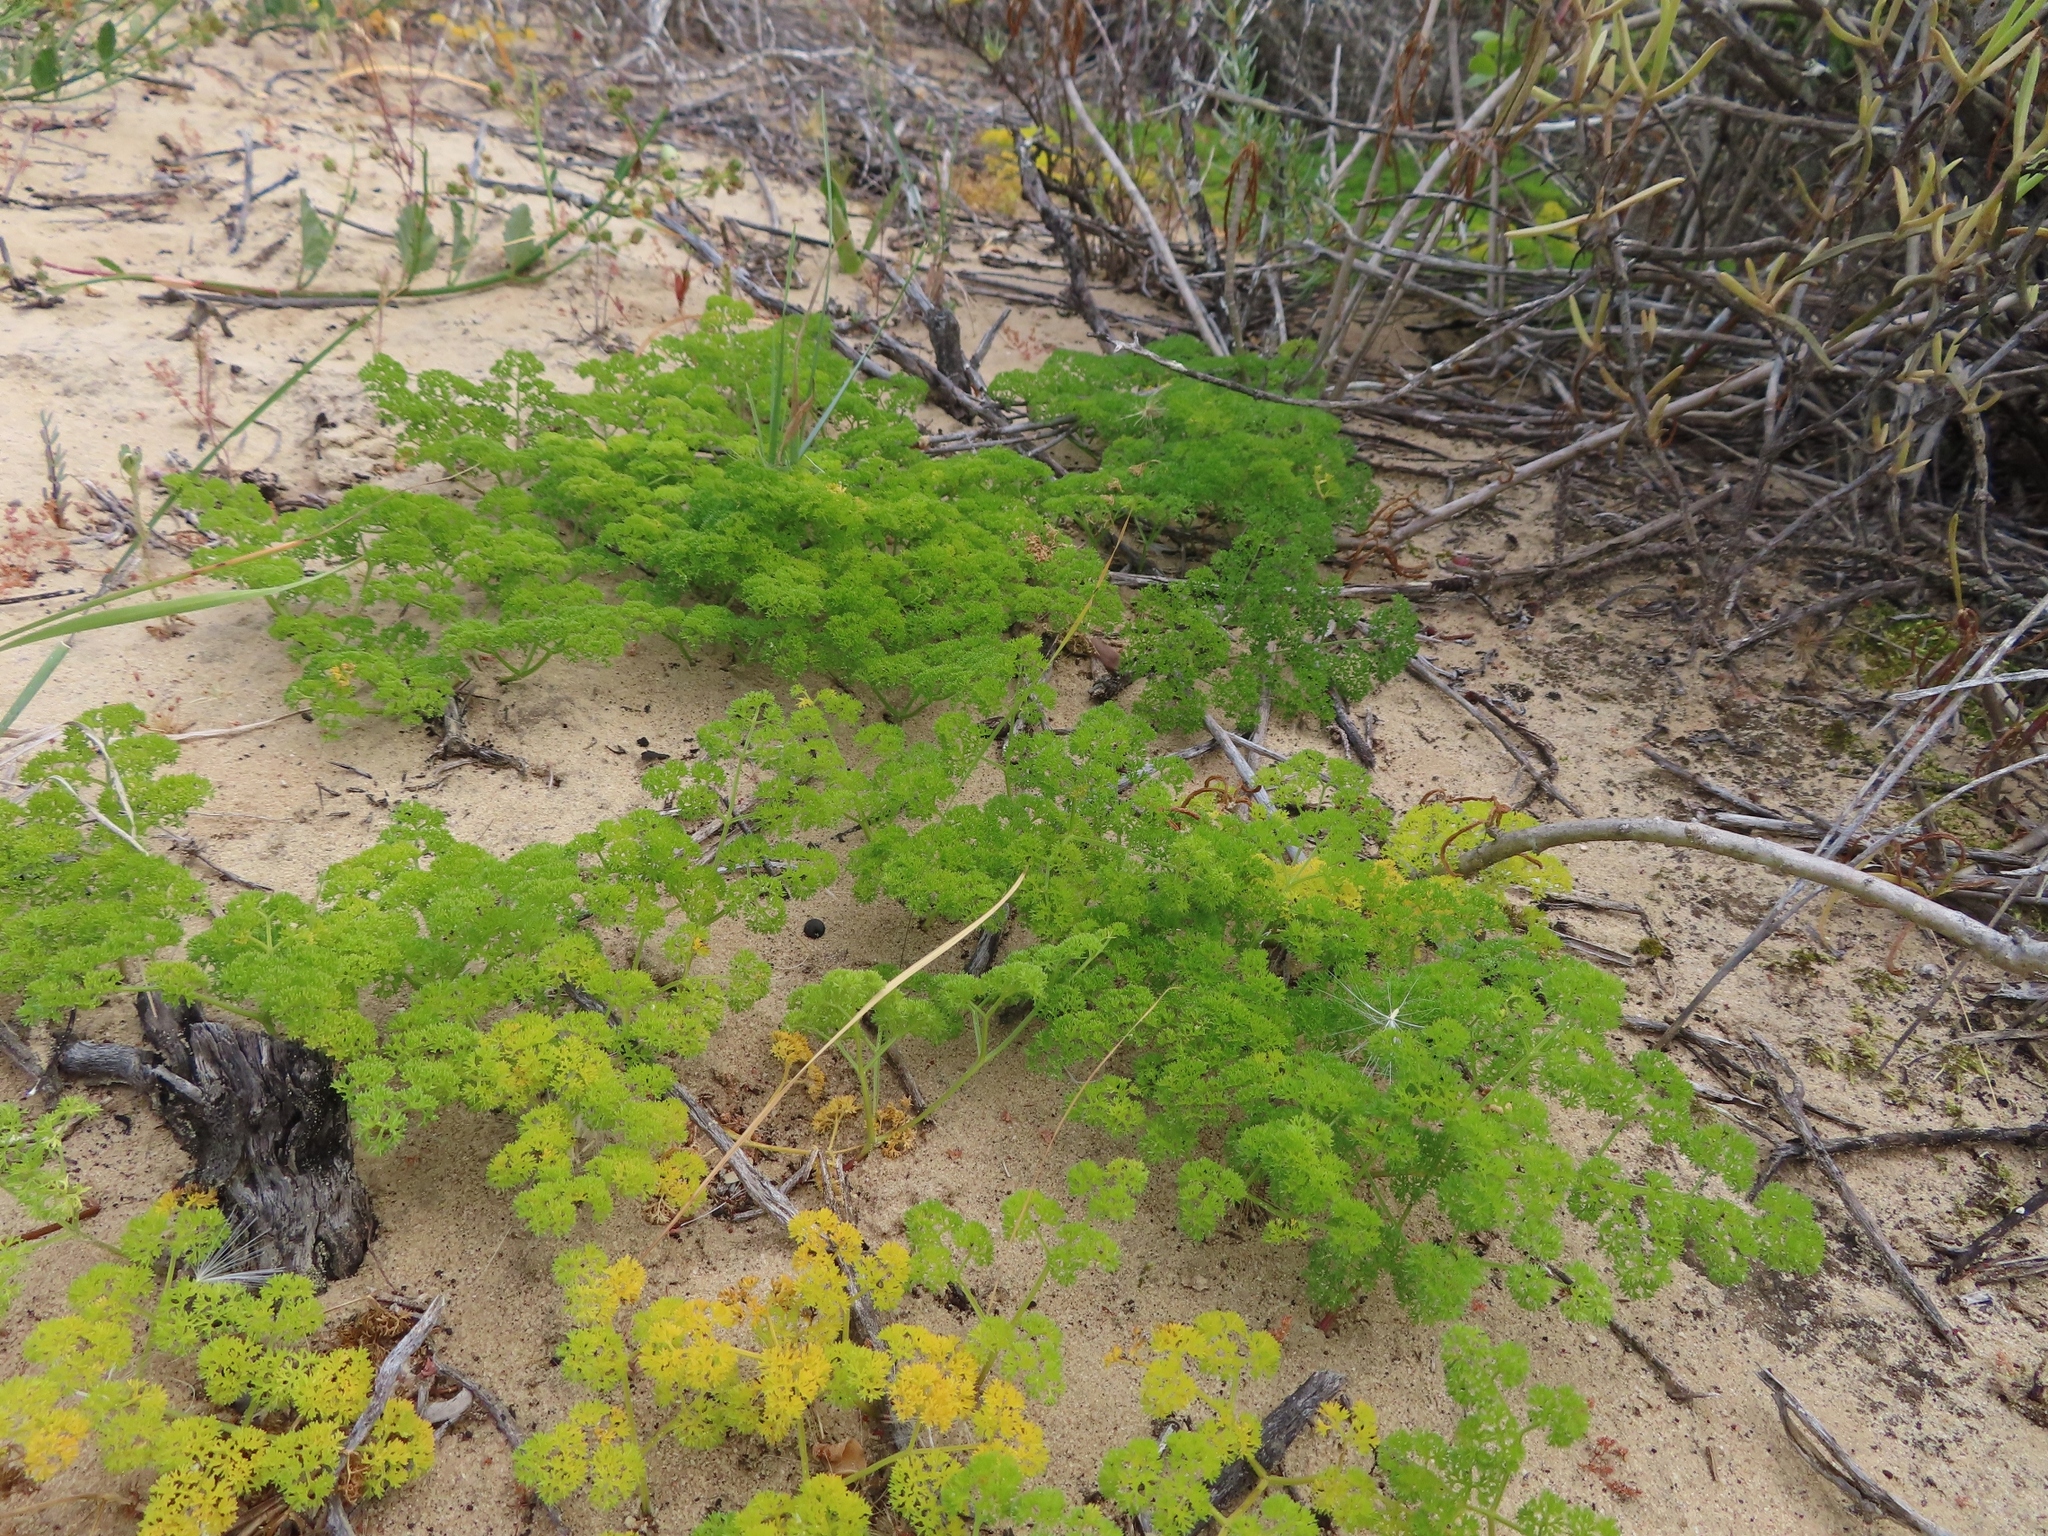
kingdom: Plantae
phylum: Tracheophyta
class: Magnoliopsida
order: Apiales
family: Apiaceae
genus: Annesorhiza
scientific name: Annesorhiza macrocarpa
